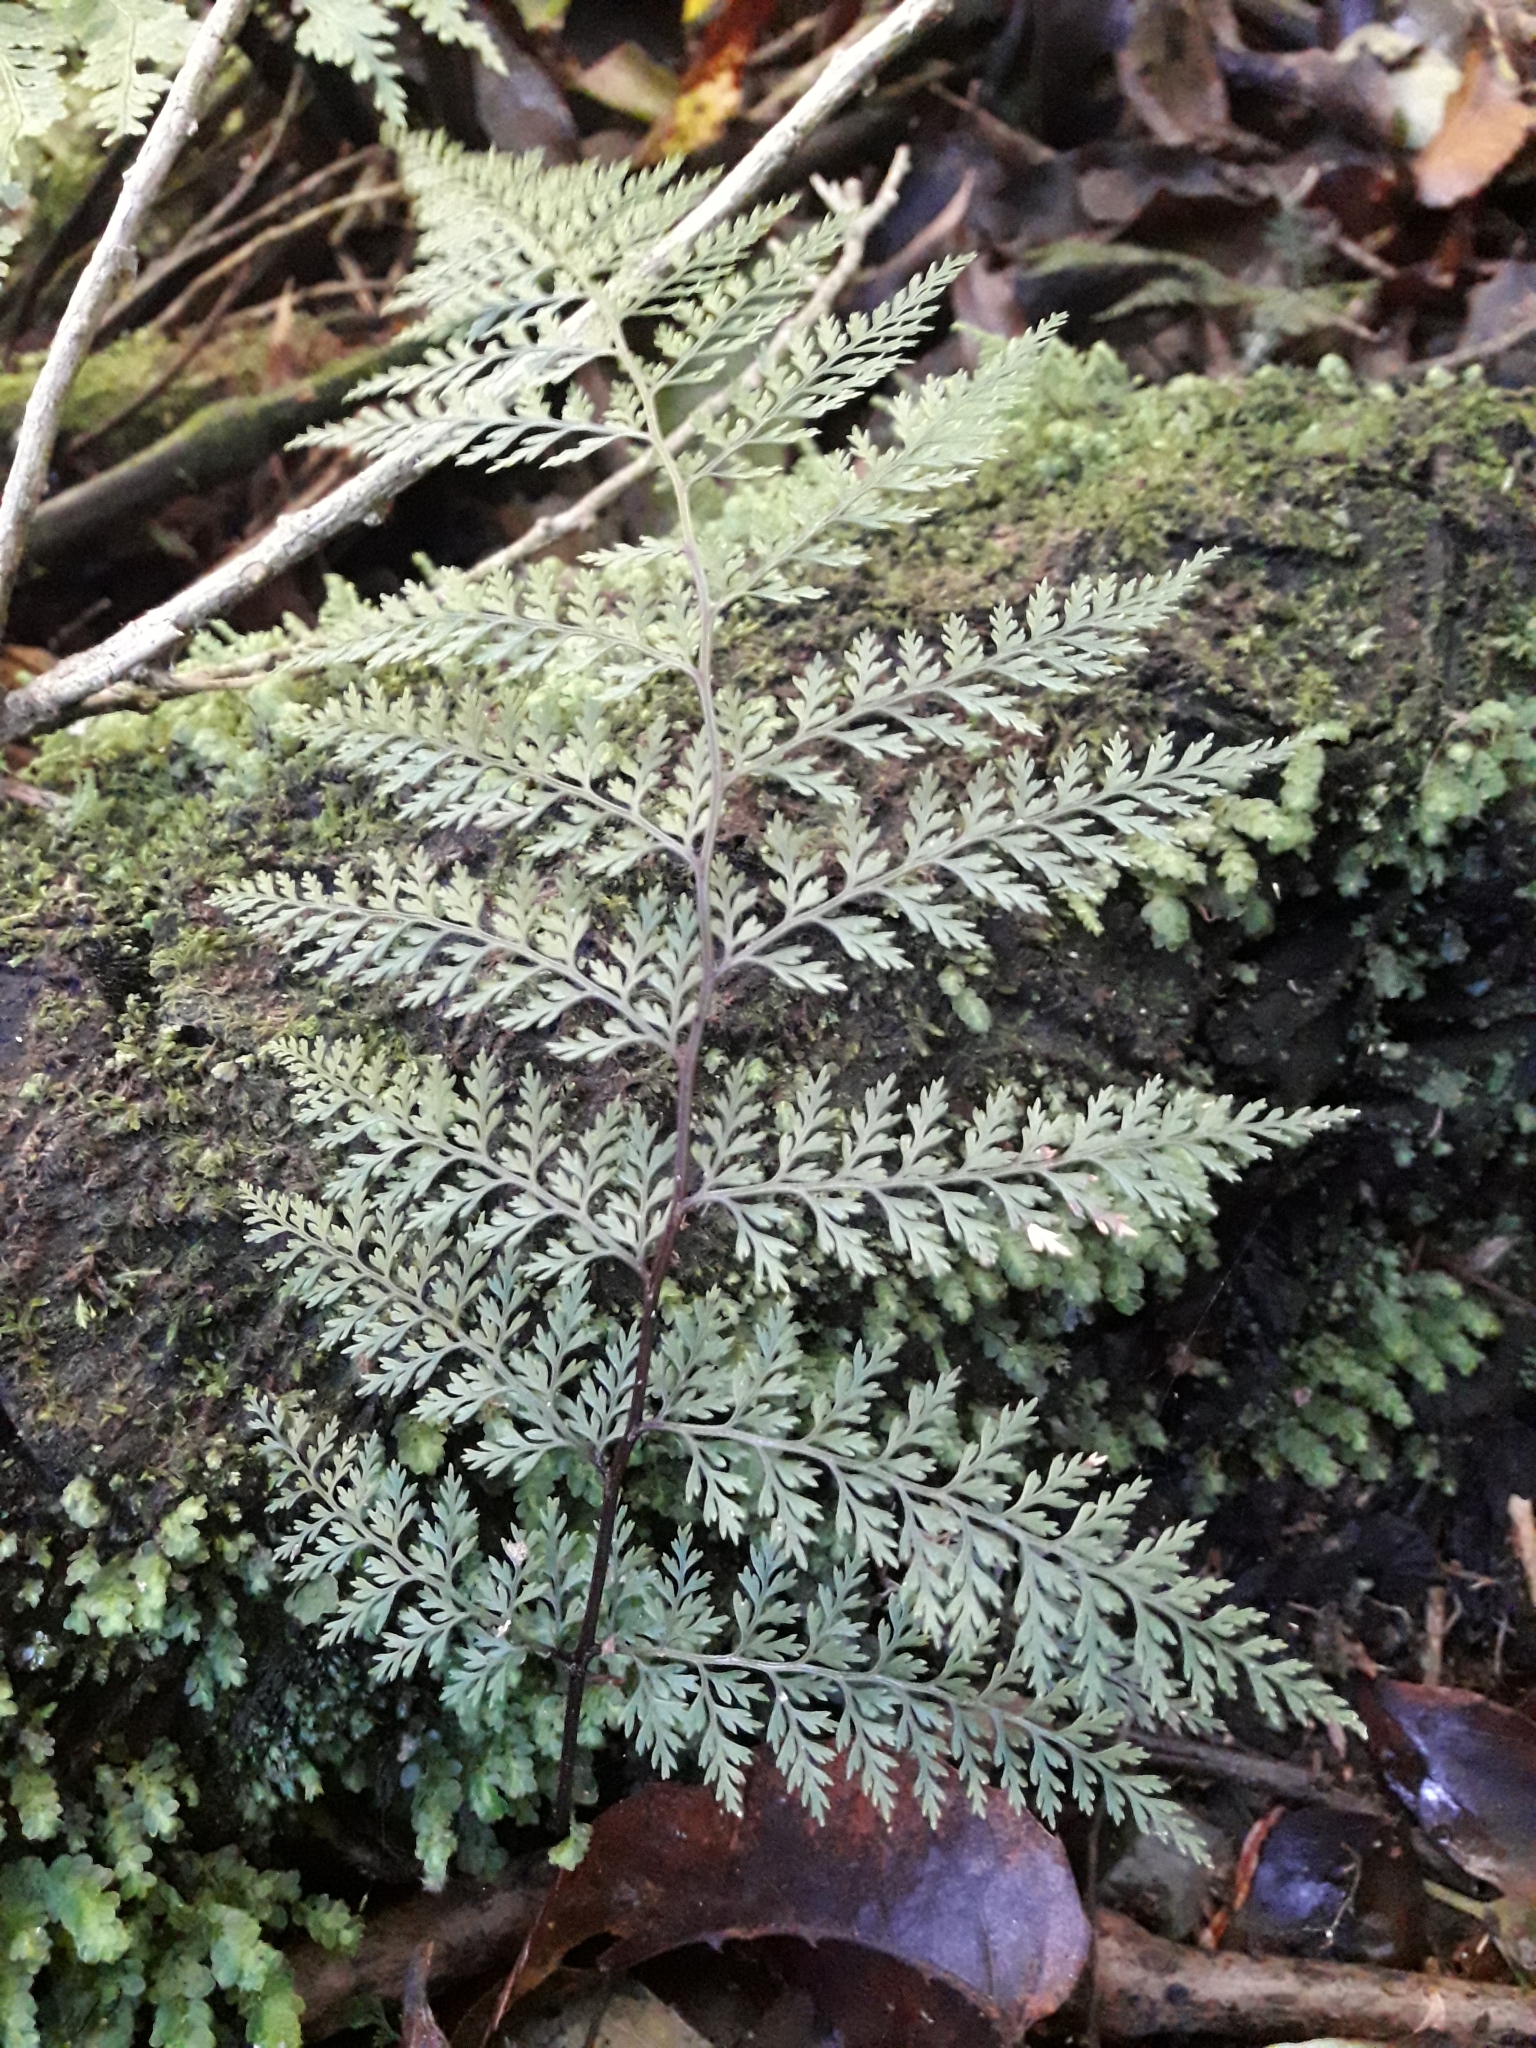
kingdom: Plantae
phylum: Tracheophyta
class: Polypodiopsida
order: Polypodiales
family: Dennstaedtiaceae
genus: Dennstaedtia
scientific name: Dennstaedtia novae-zelandiae
